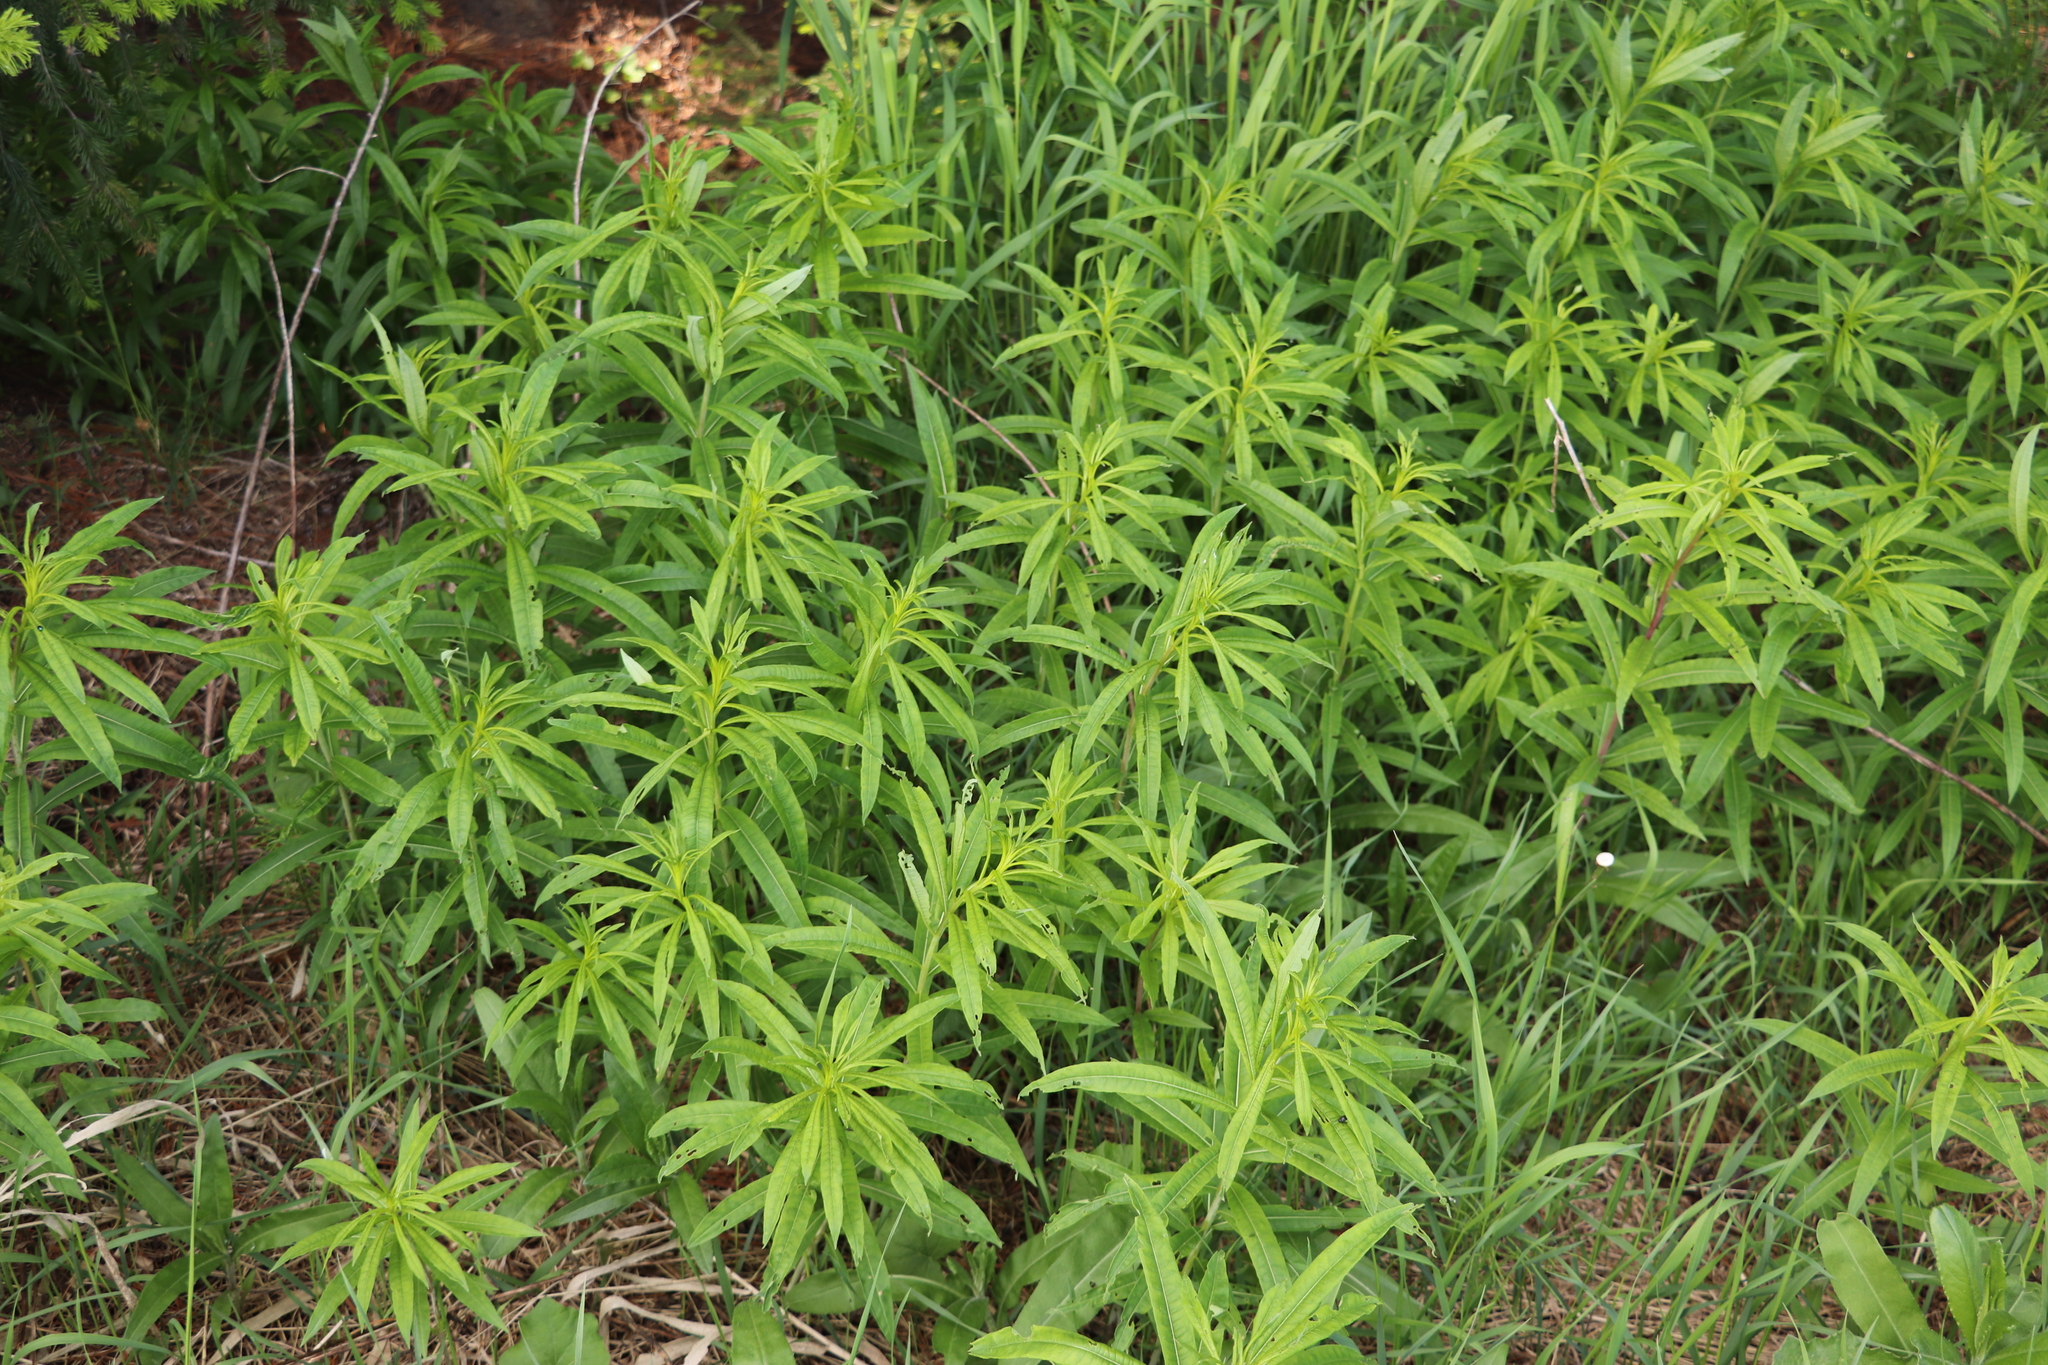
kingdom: Plantae
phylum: Tracheophyta
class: Magnoliopsida
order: Myrtales
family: Onagraceae
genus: Chamaenerion
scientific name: Chamaenerion angustifolium
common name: Fireweed
